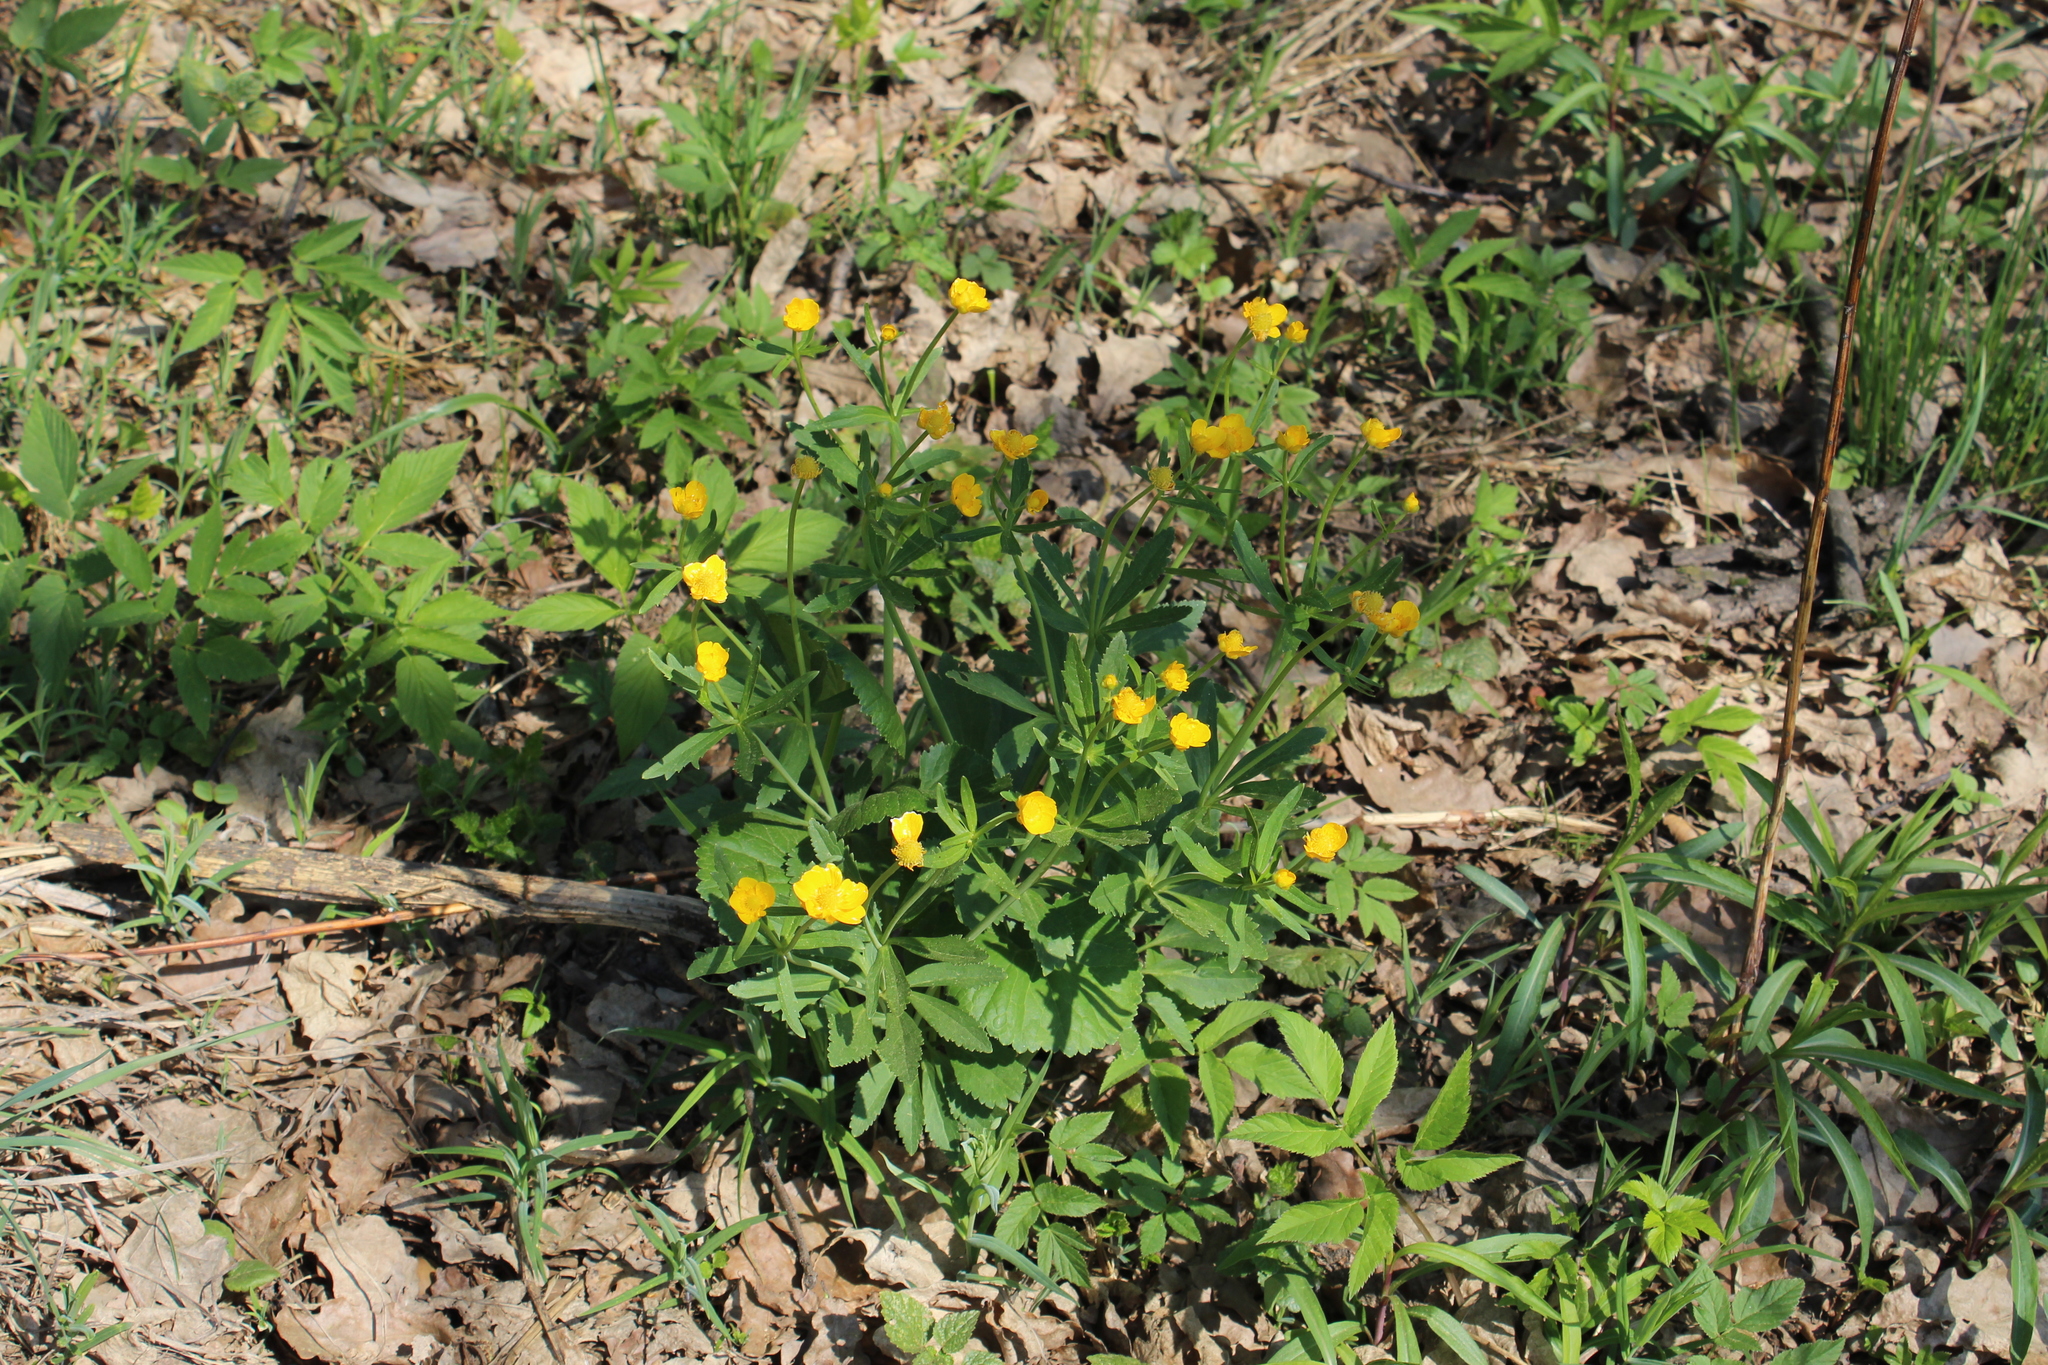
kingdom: Plantae
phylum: Tracheophyta
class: Magnoliopsida
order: Ranunculales
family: Ranunculaceae
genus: Ranunculus
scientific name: Ranunculus cassubicus
